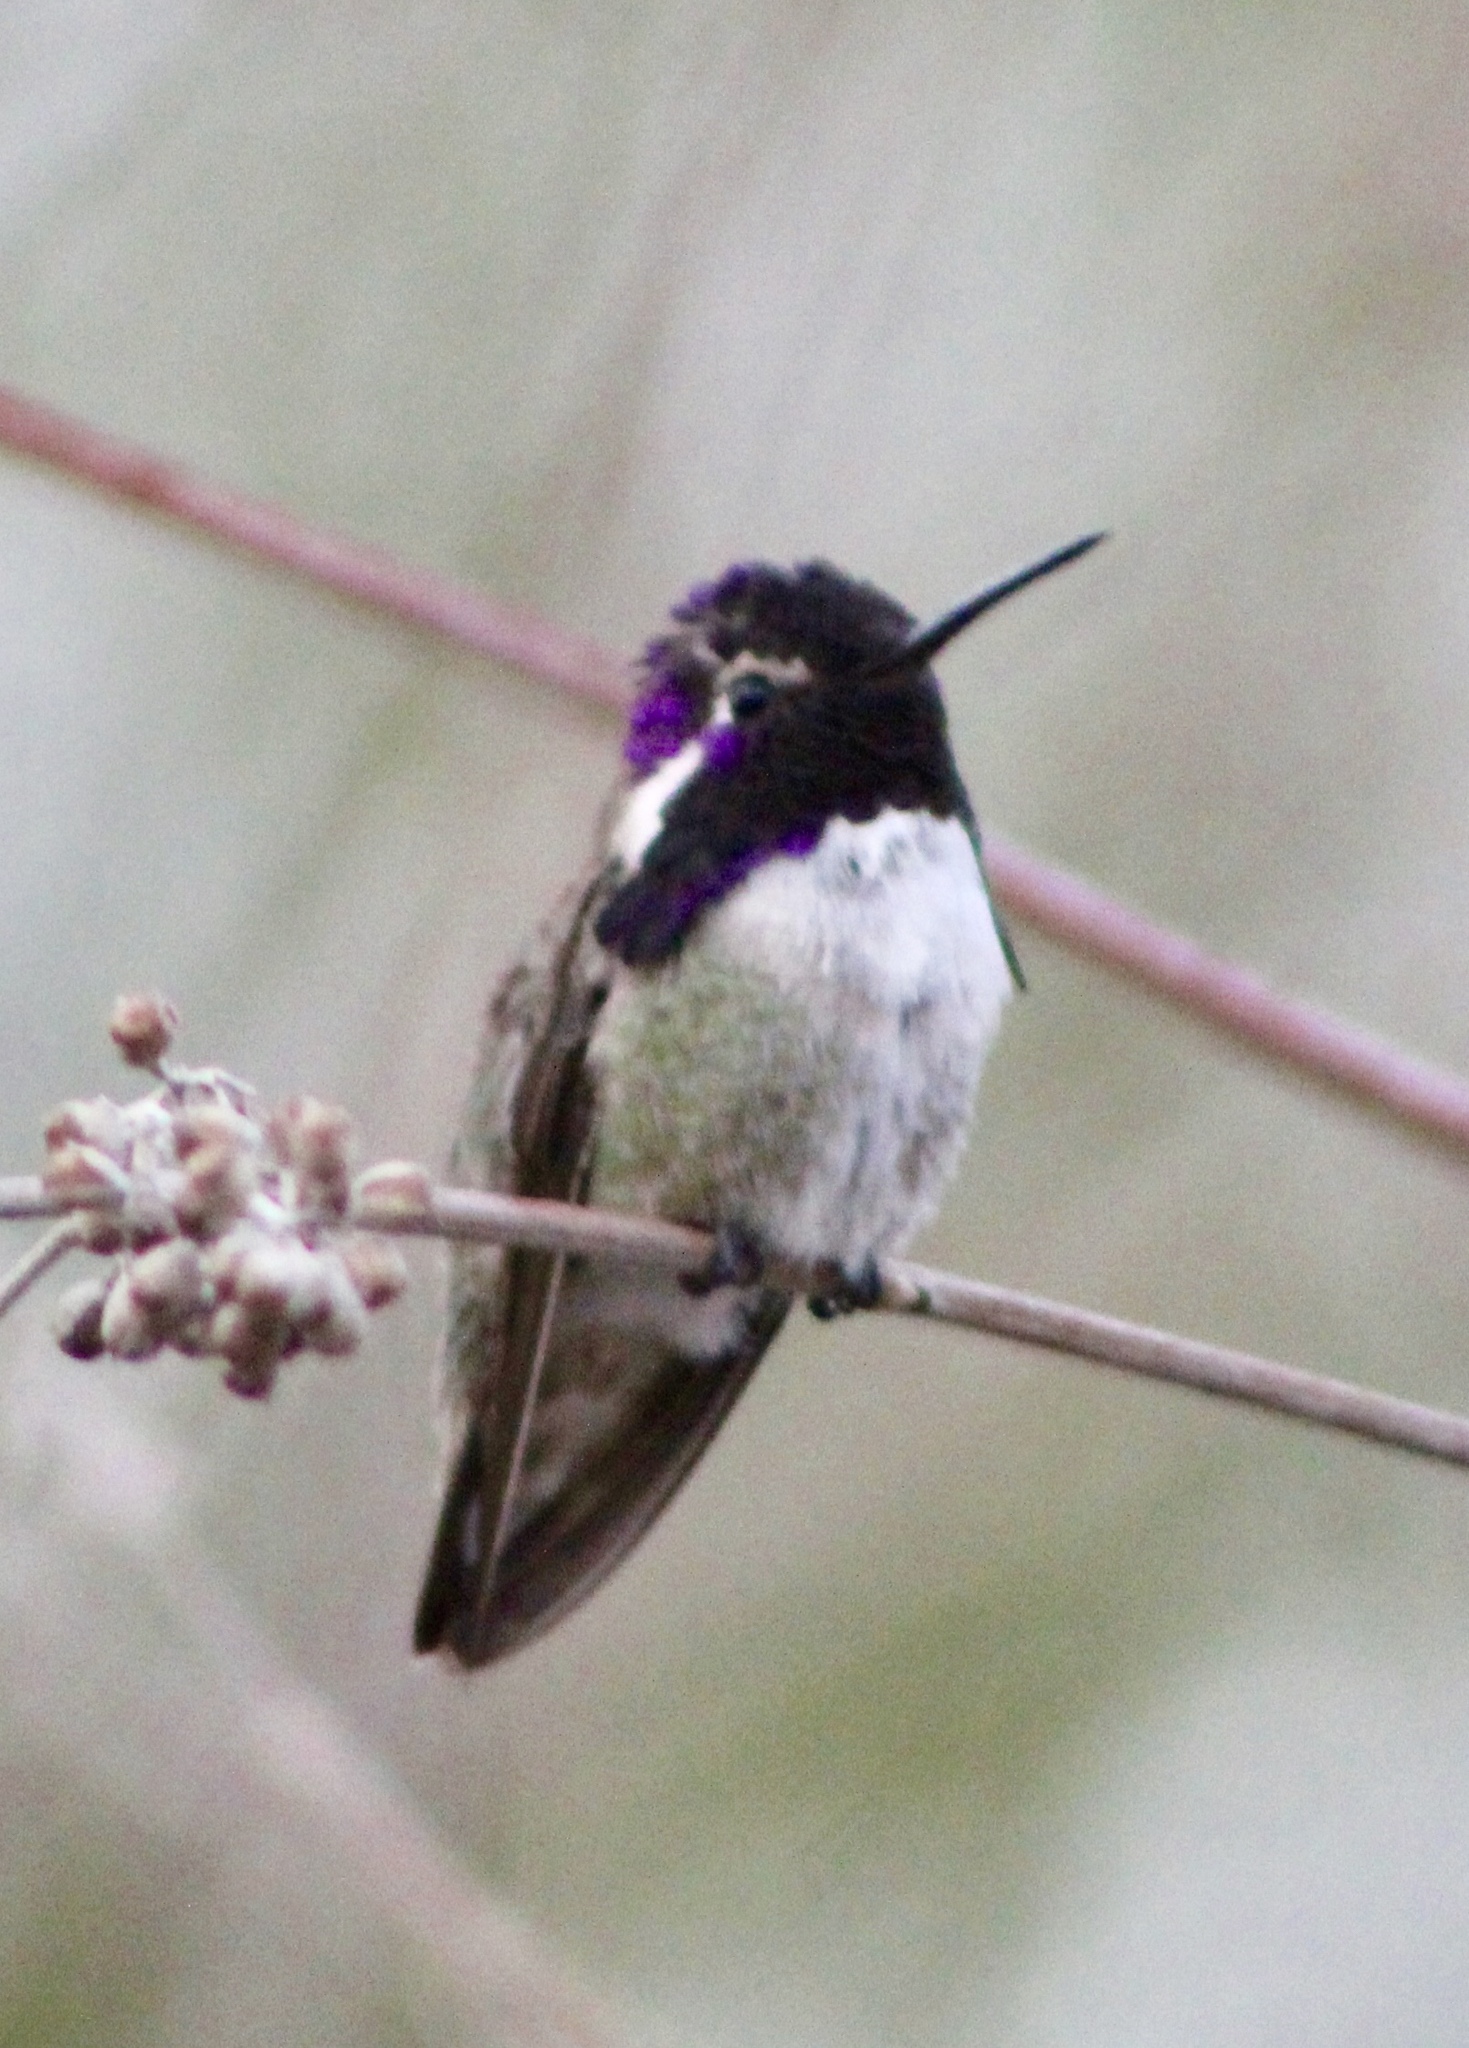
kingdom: Animalia
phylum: Chordata
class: Aves
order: Apodiformes
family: Trochilidae
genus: Calypte
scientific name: Calypte costae
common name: Costa's hummingbird
